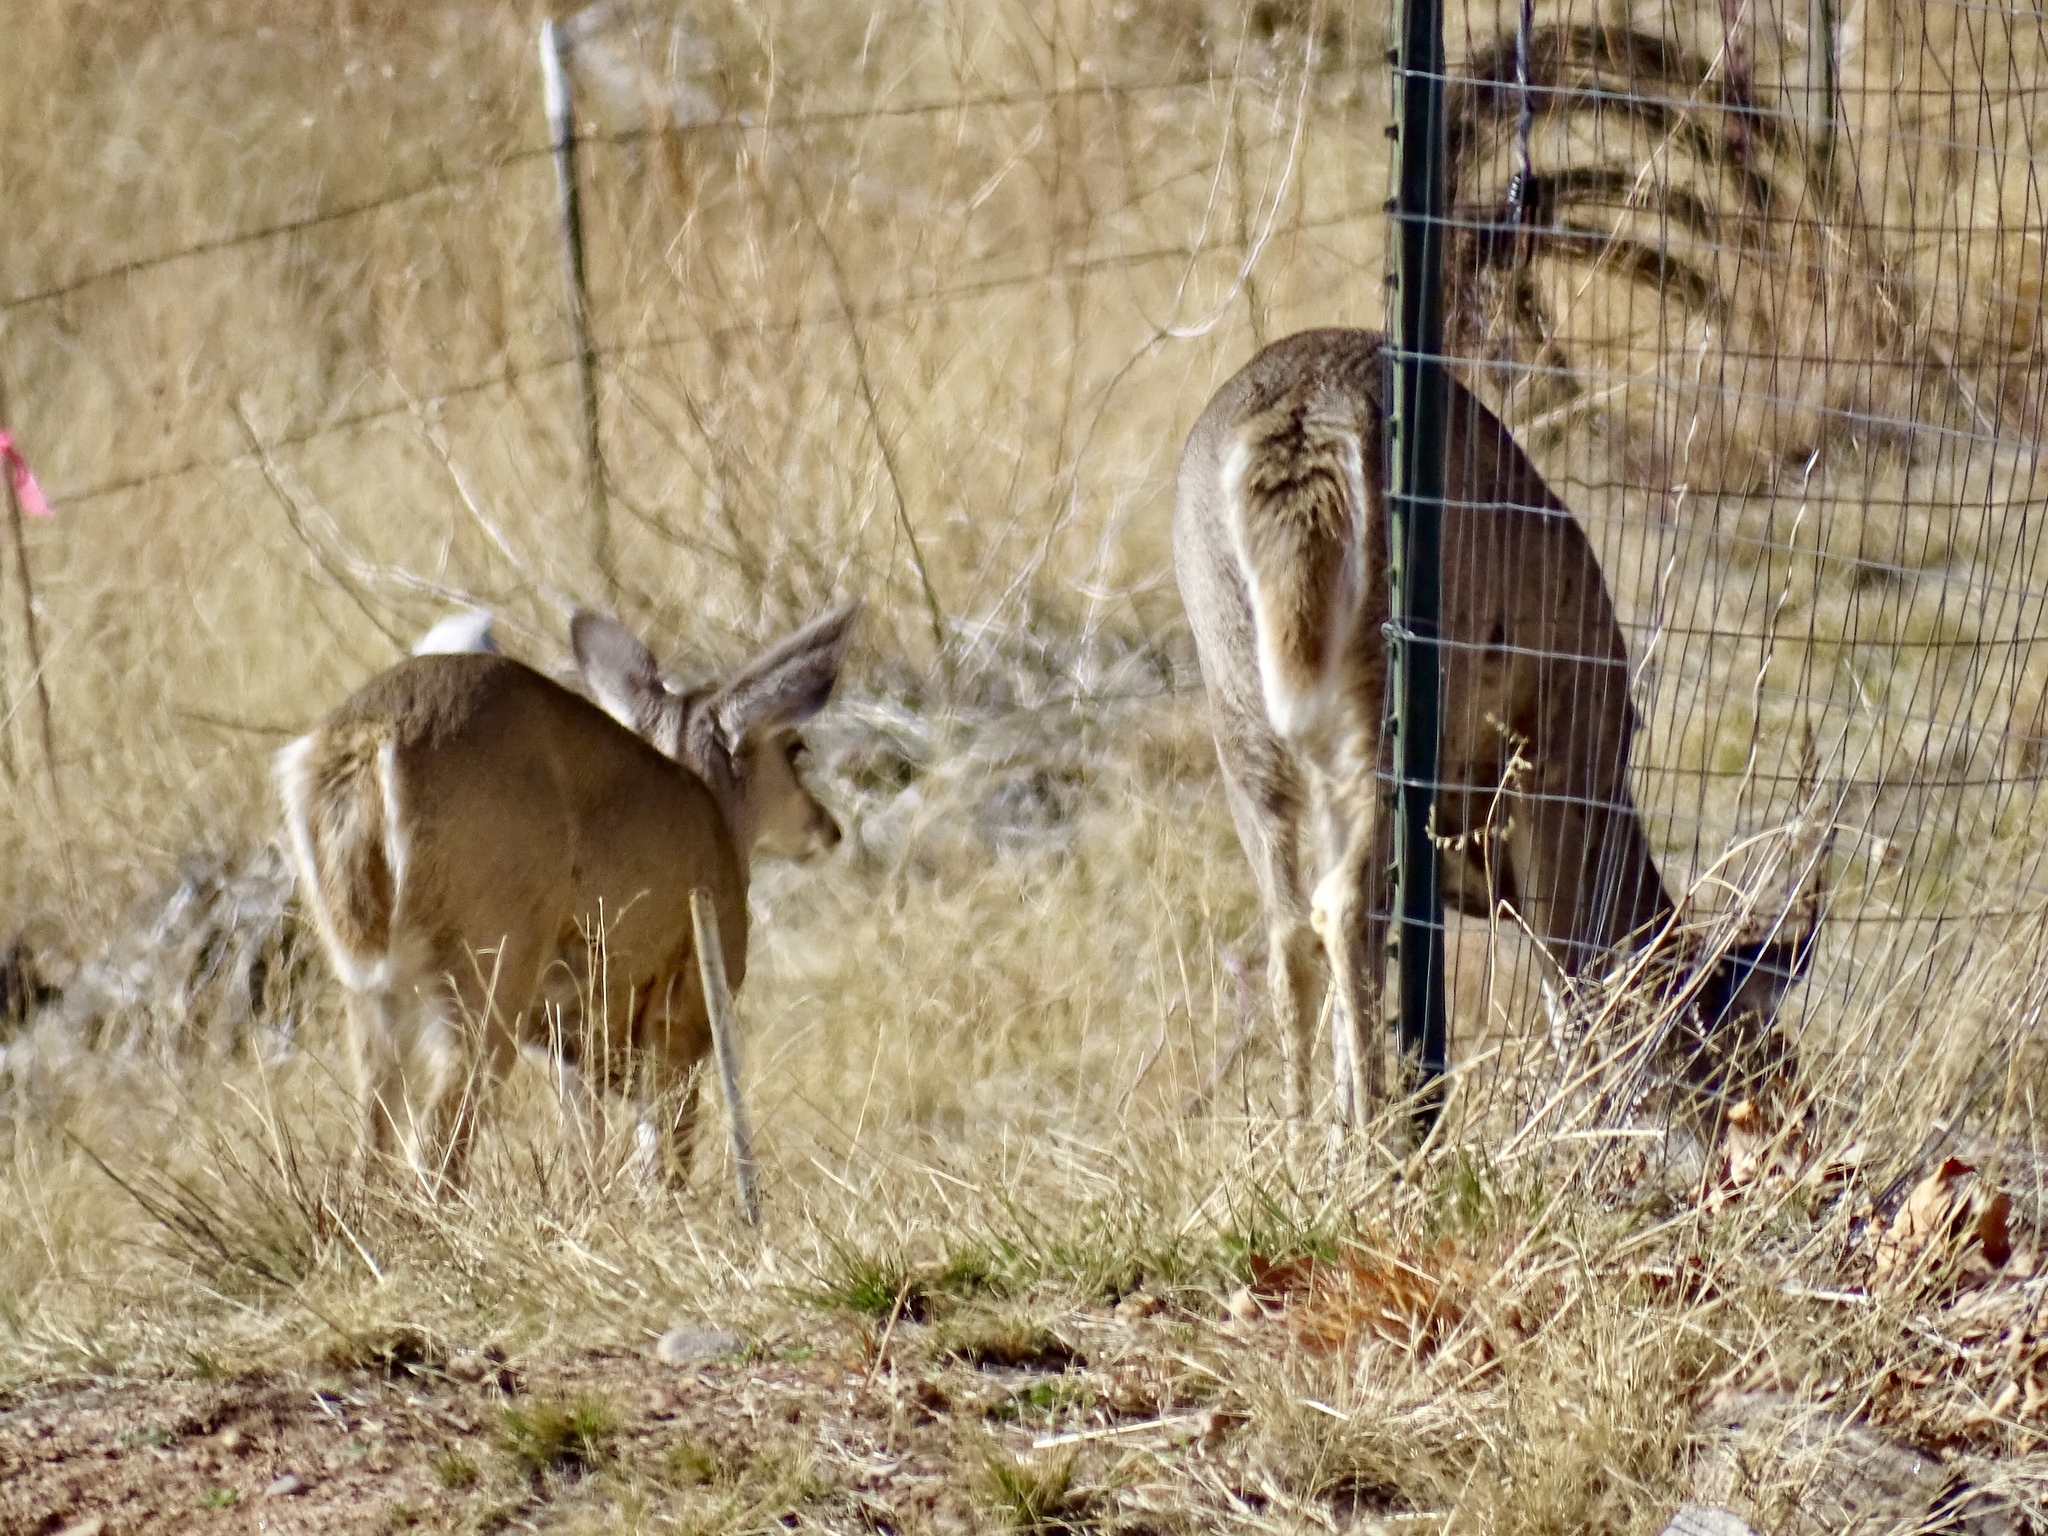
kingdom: Animalia
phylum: Chordata
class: Mammalia
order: Artiodactyla
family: Cervidae
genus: Odocoileus
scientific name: Odocoileus virginianus
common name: White-tailed deer
